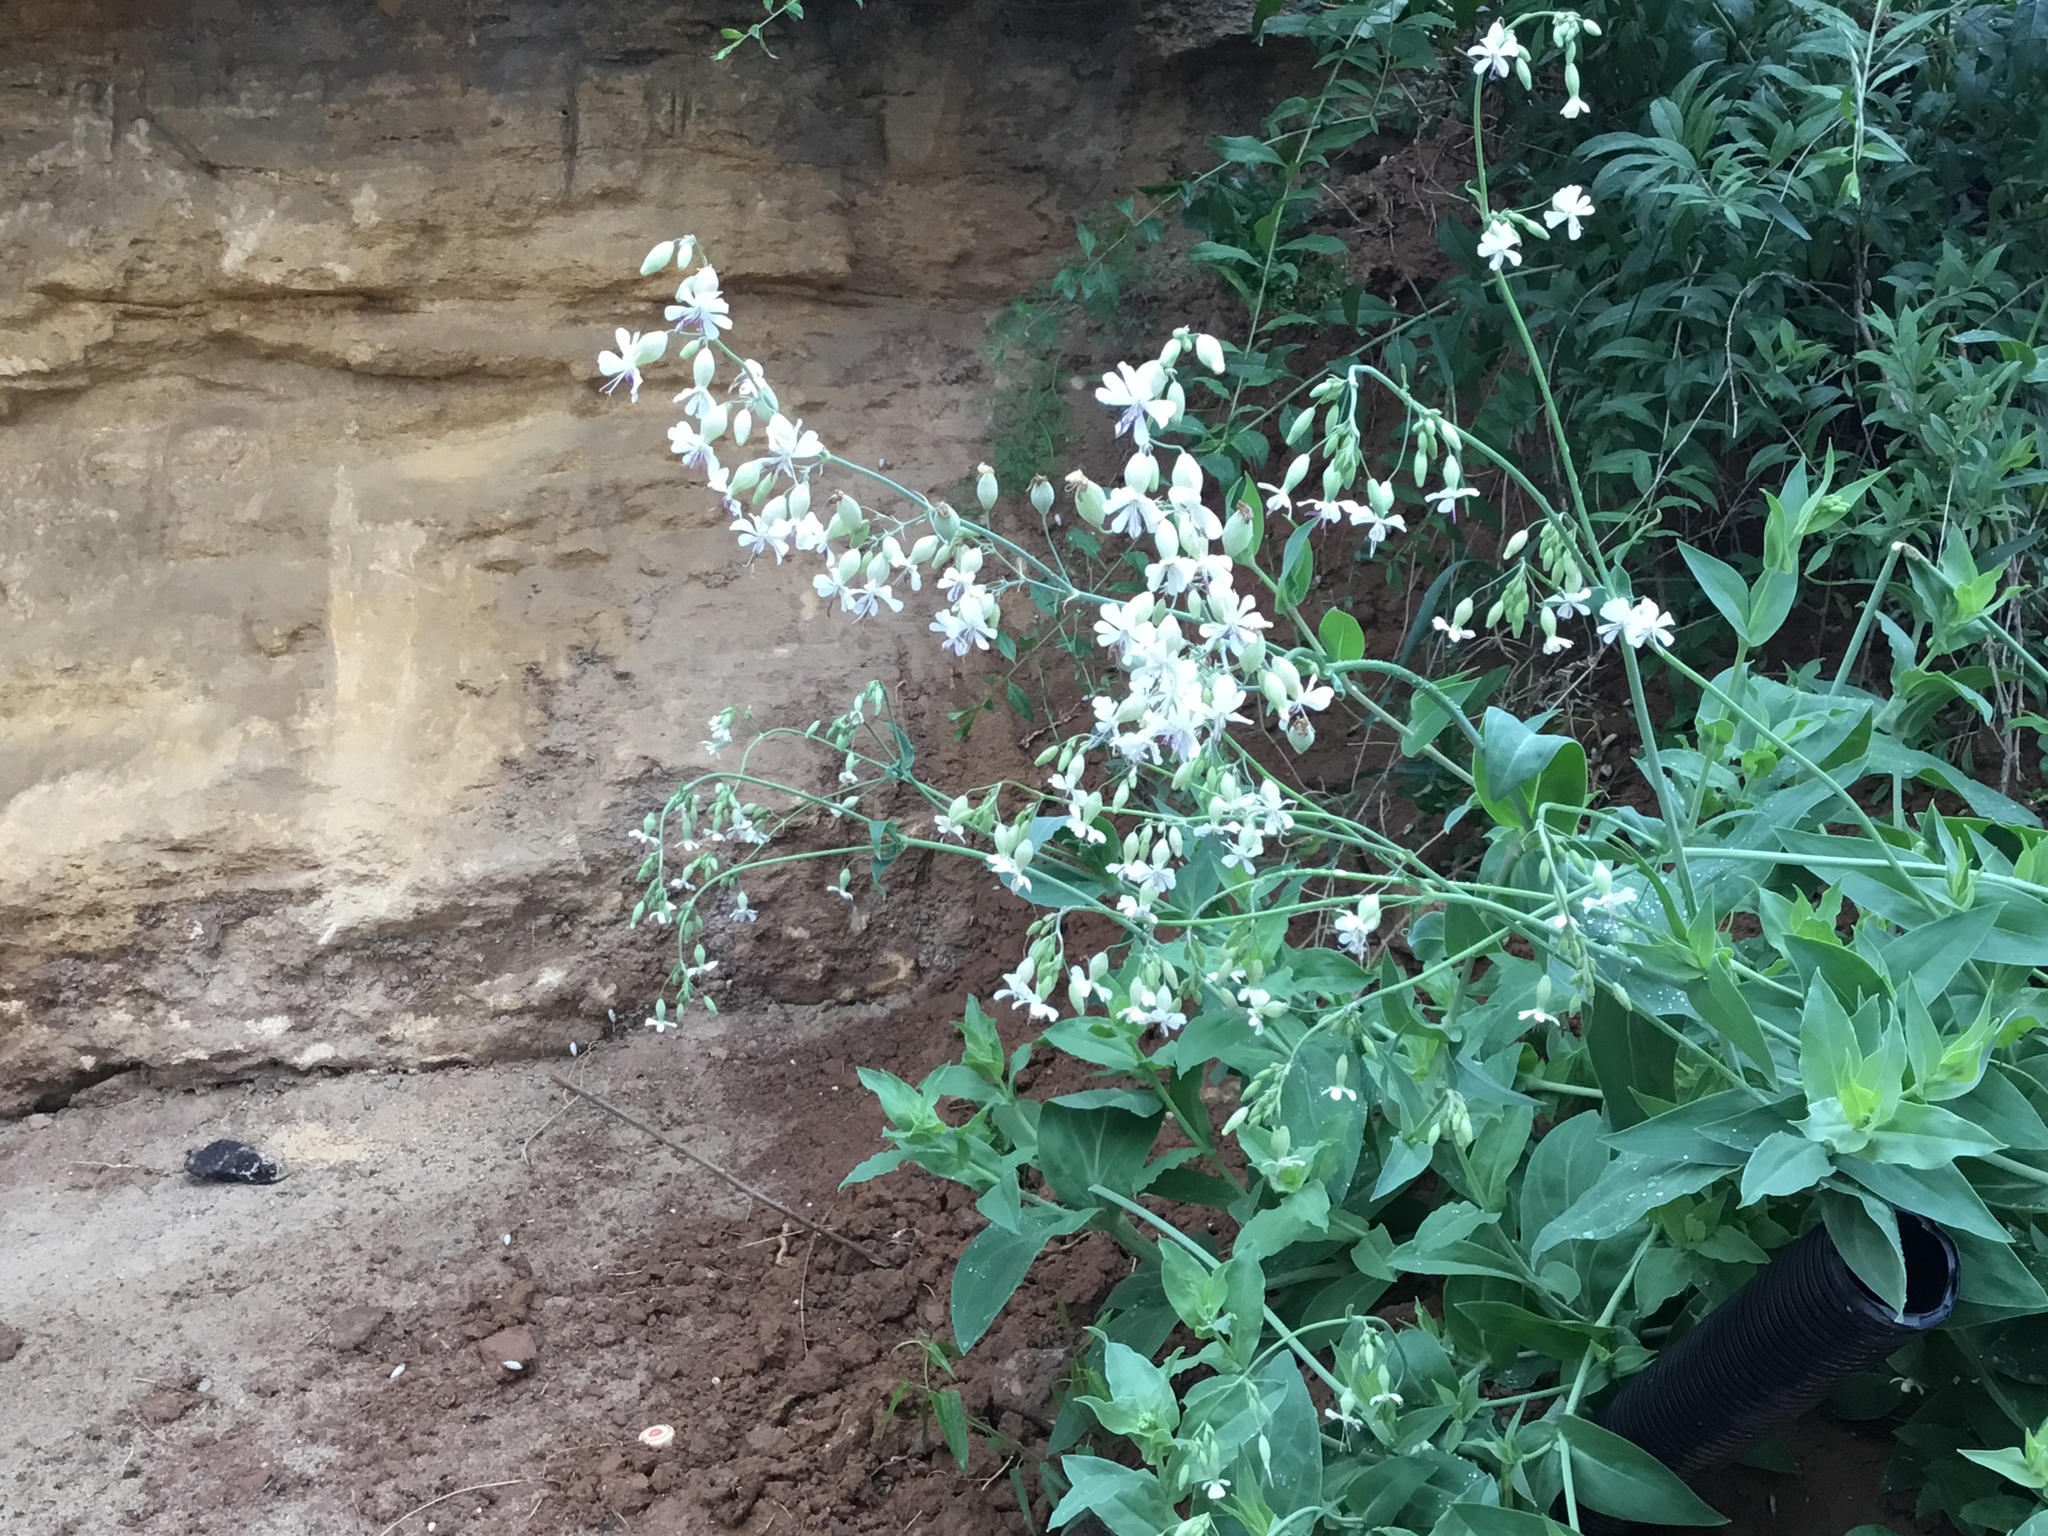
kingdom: Plantae
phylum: Tracheophyta
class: Magnoliopsida
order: Caryophyllales
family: Caryophyllaceae
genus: Silene
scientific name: Silene csereii
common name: Balkan catchfly
